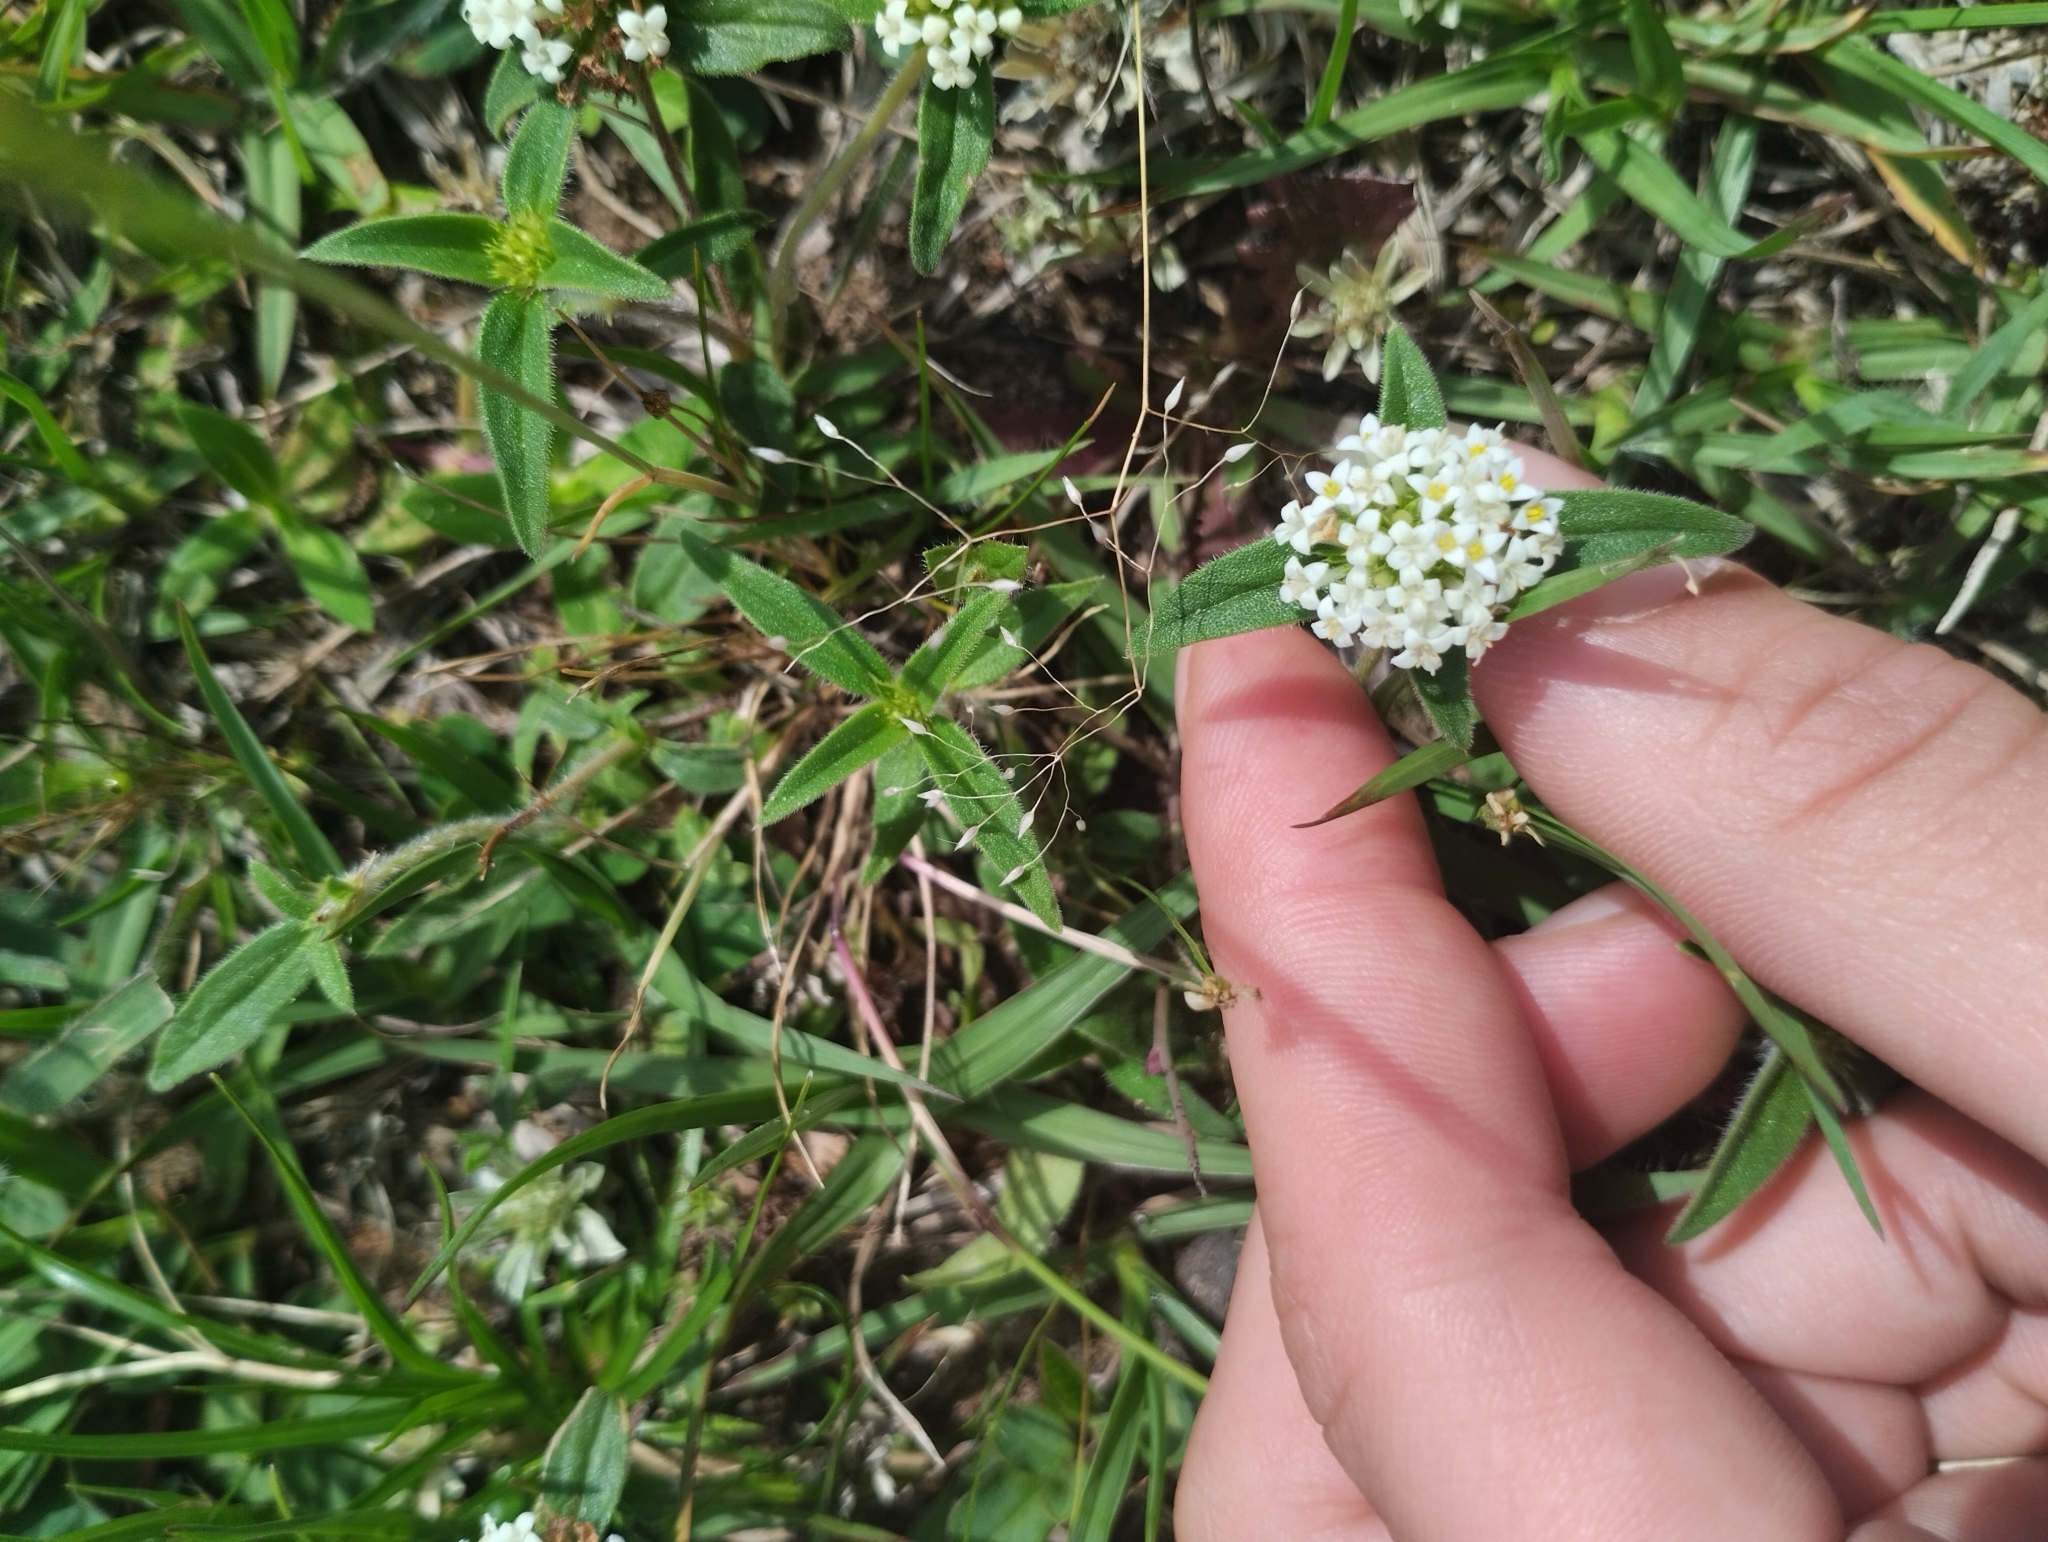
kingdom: Plantae
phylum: Tracheophyta
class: Magnoliopsida
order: Gentianales
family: Rubiaceae
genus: Mitracarpus
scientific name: Mitracarpus megapotamicus
